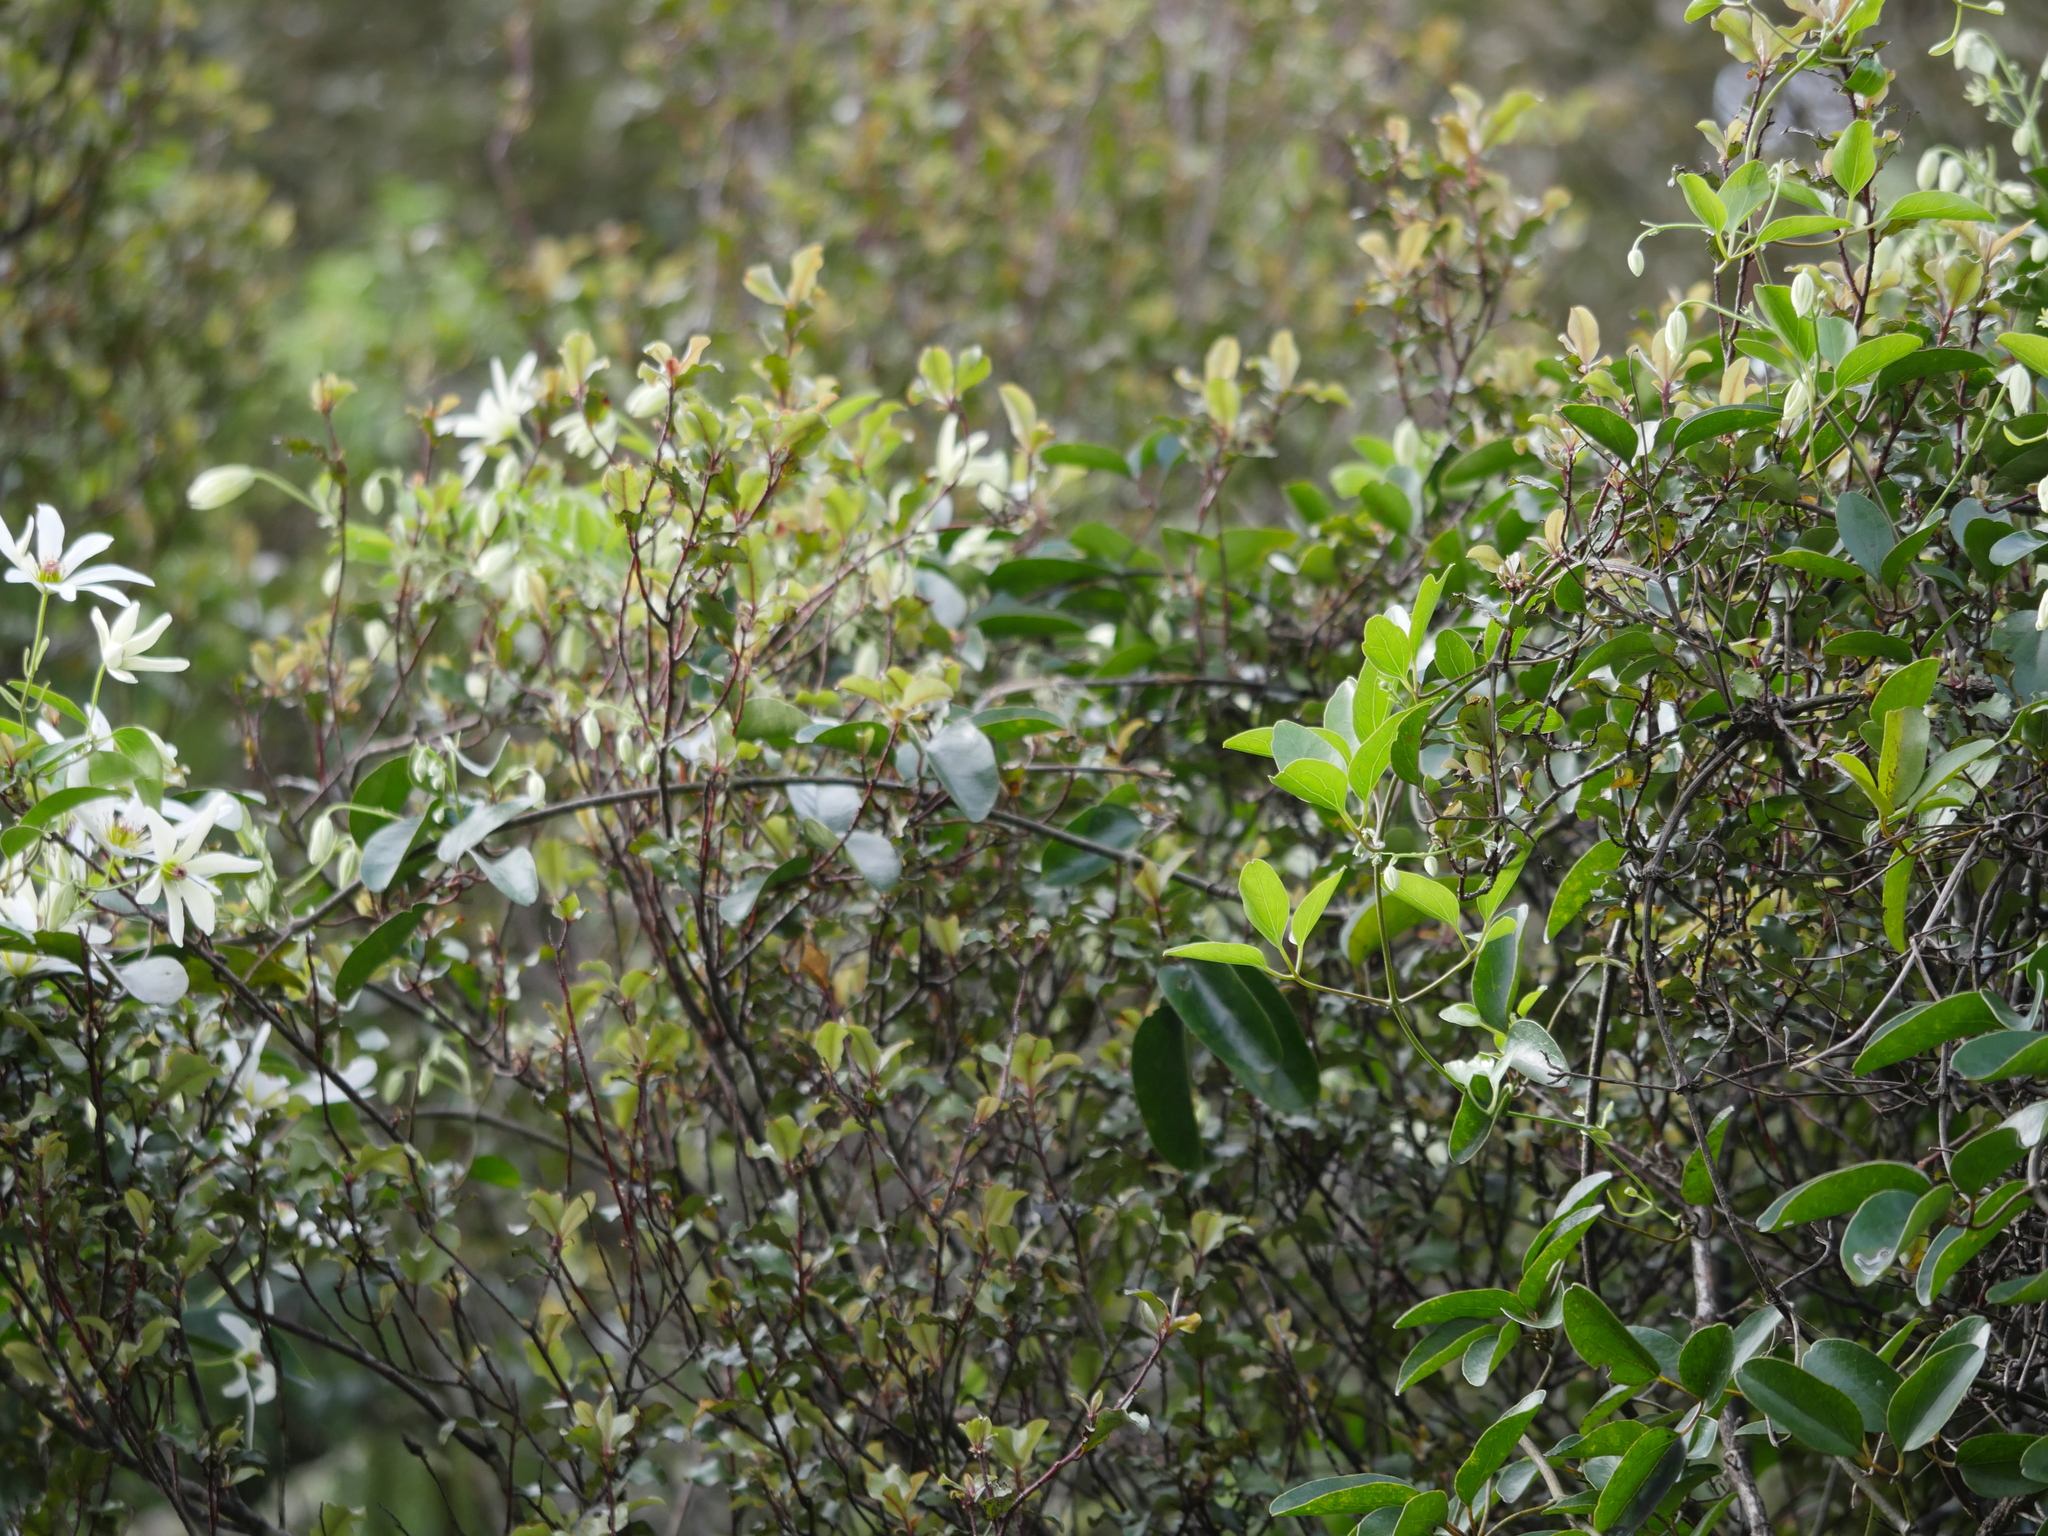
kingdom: Plantae
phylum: Tracheophyta
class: Magnoliopsida
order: Ranunculales
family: Ranunculaceae
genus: Clematis
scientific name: Clematis paniculata
